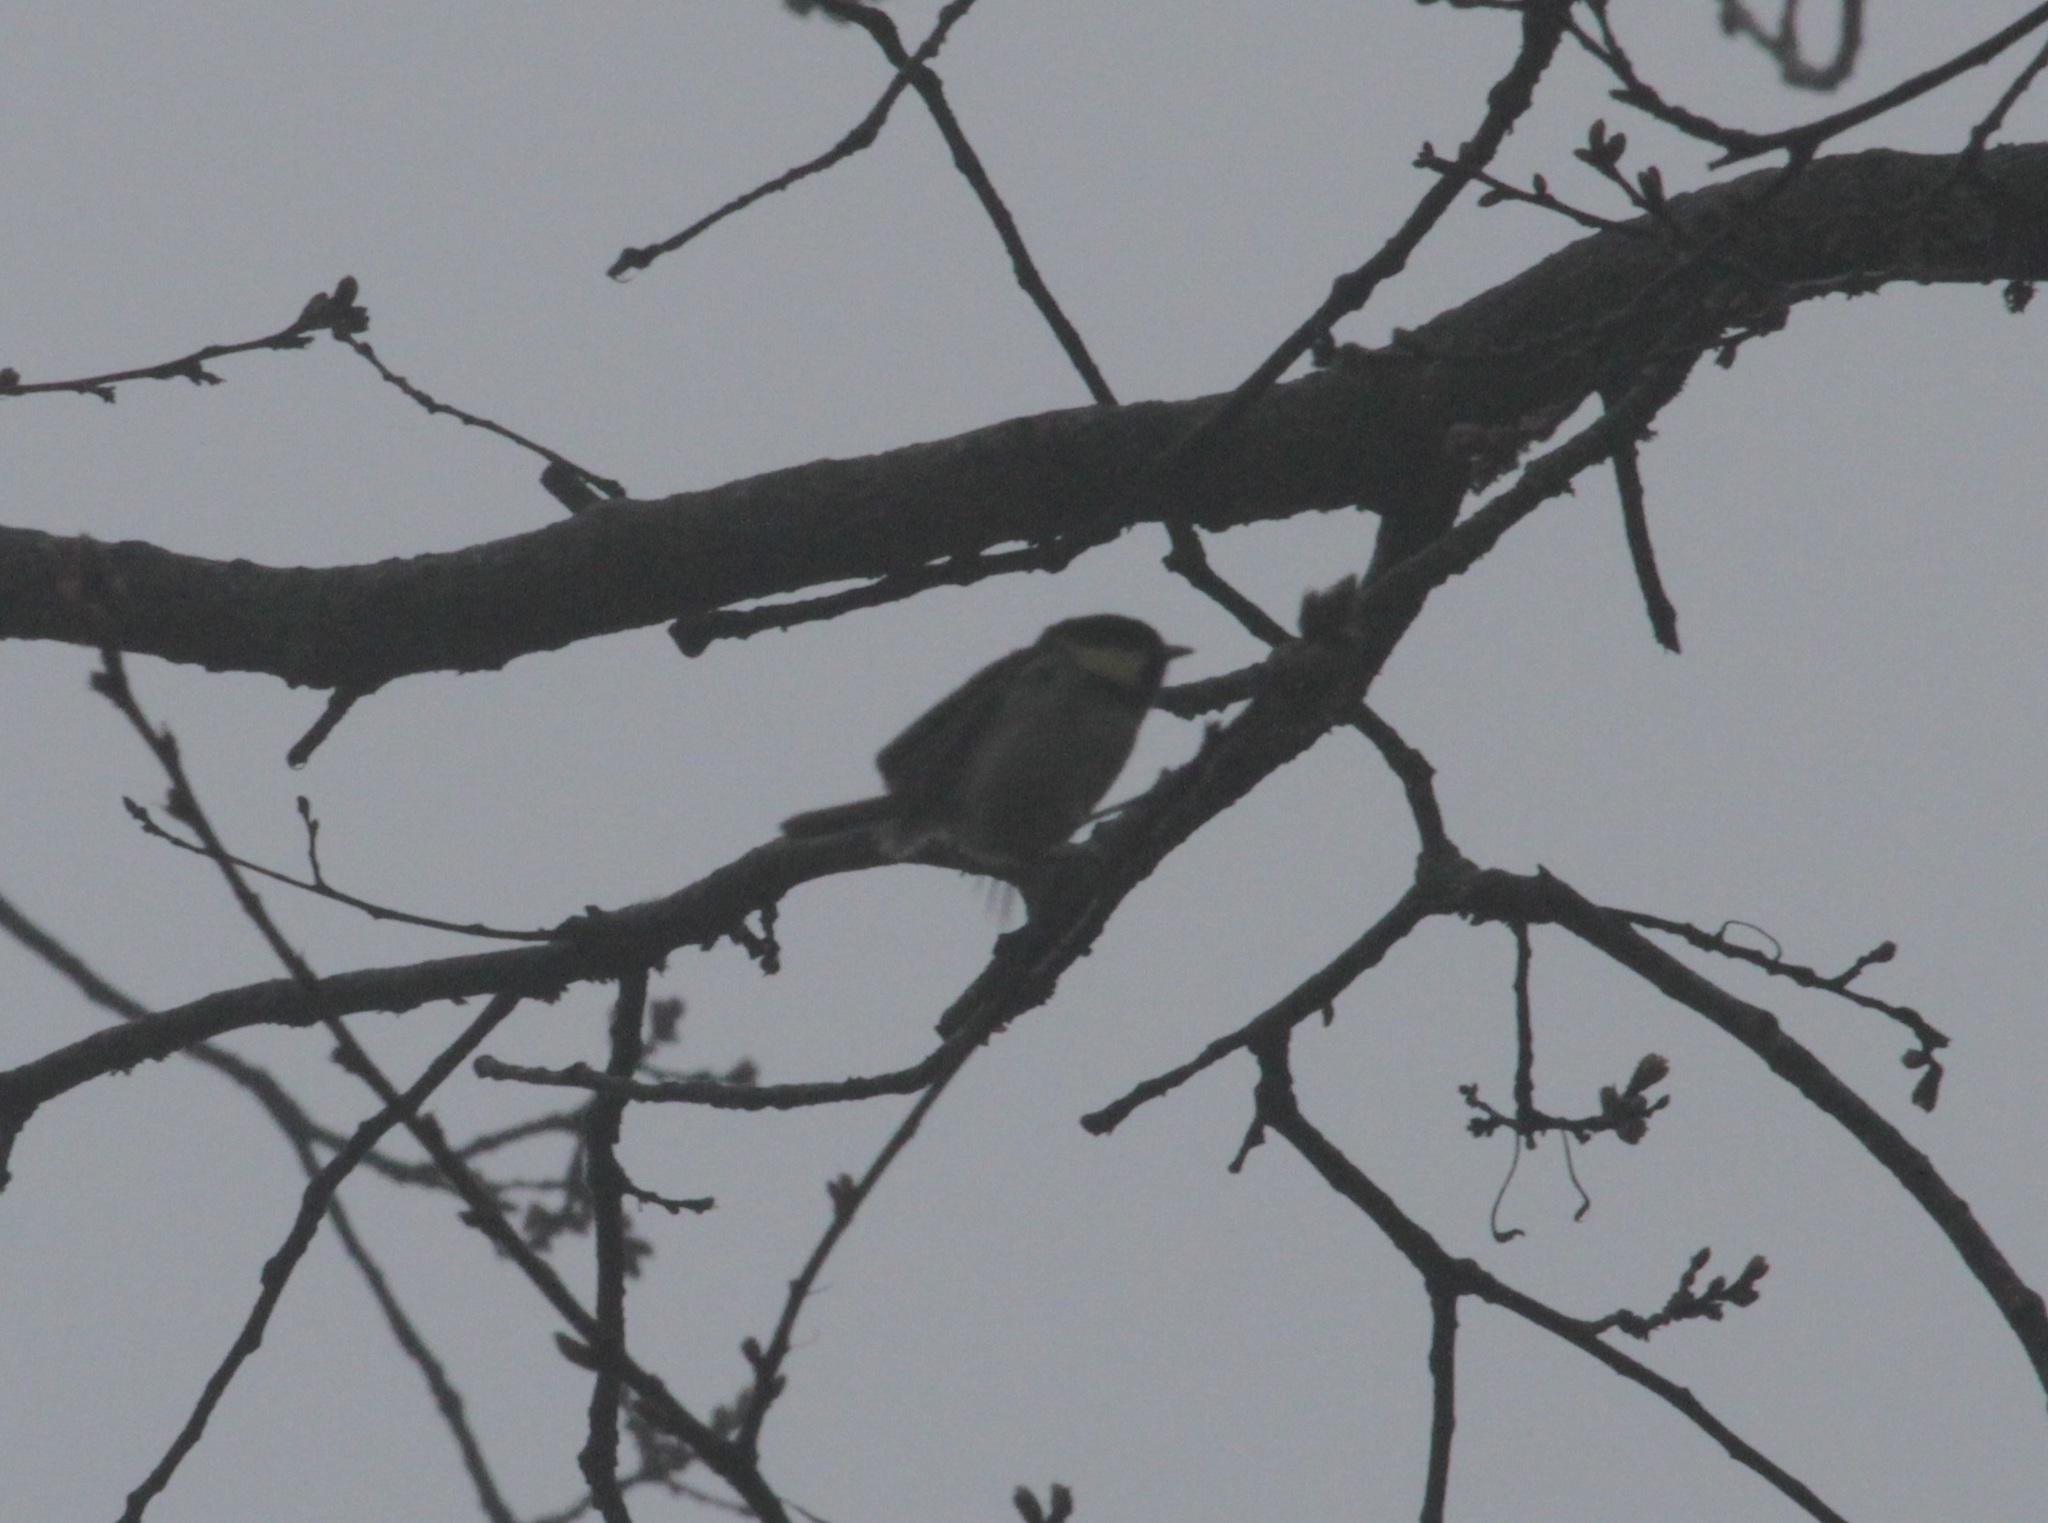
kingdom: Animalia
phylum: Chordata
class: Aves
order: Passeriformes
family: Paridae
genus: Periparus
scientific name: Periparus ater
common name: Coal tit
